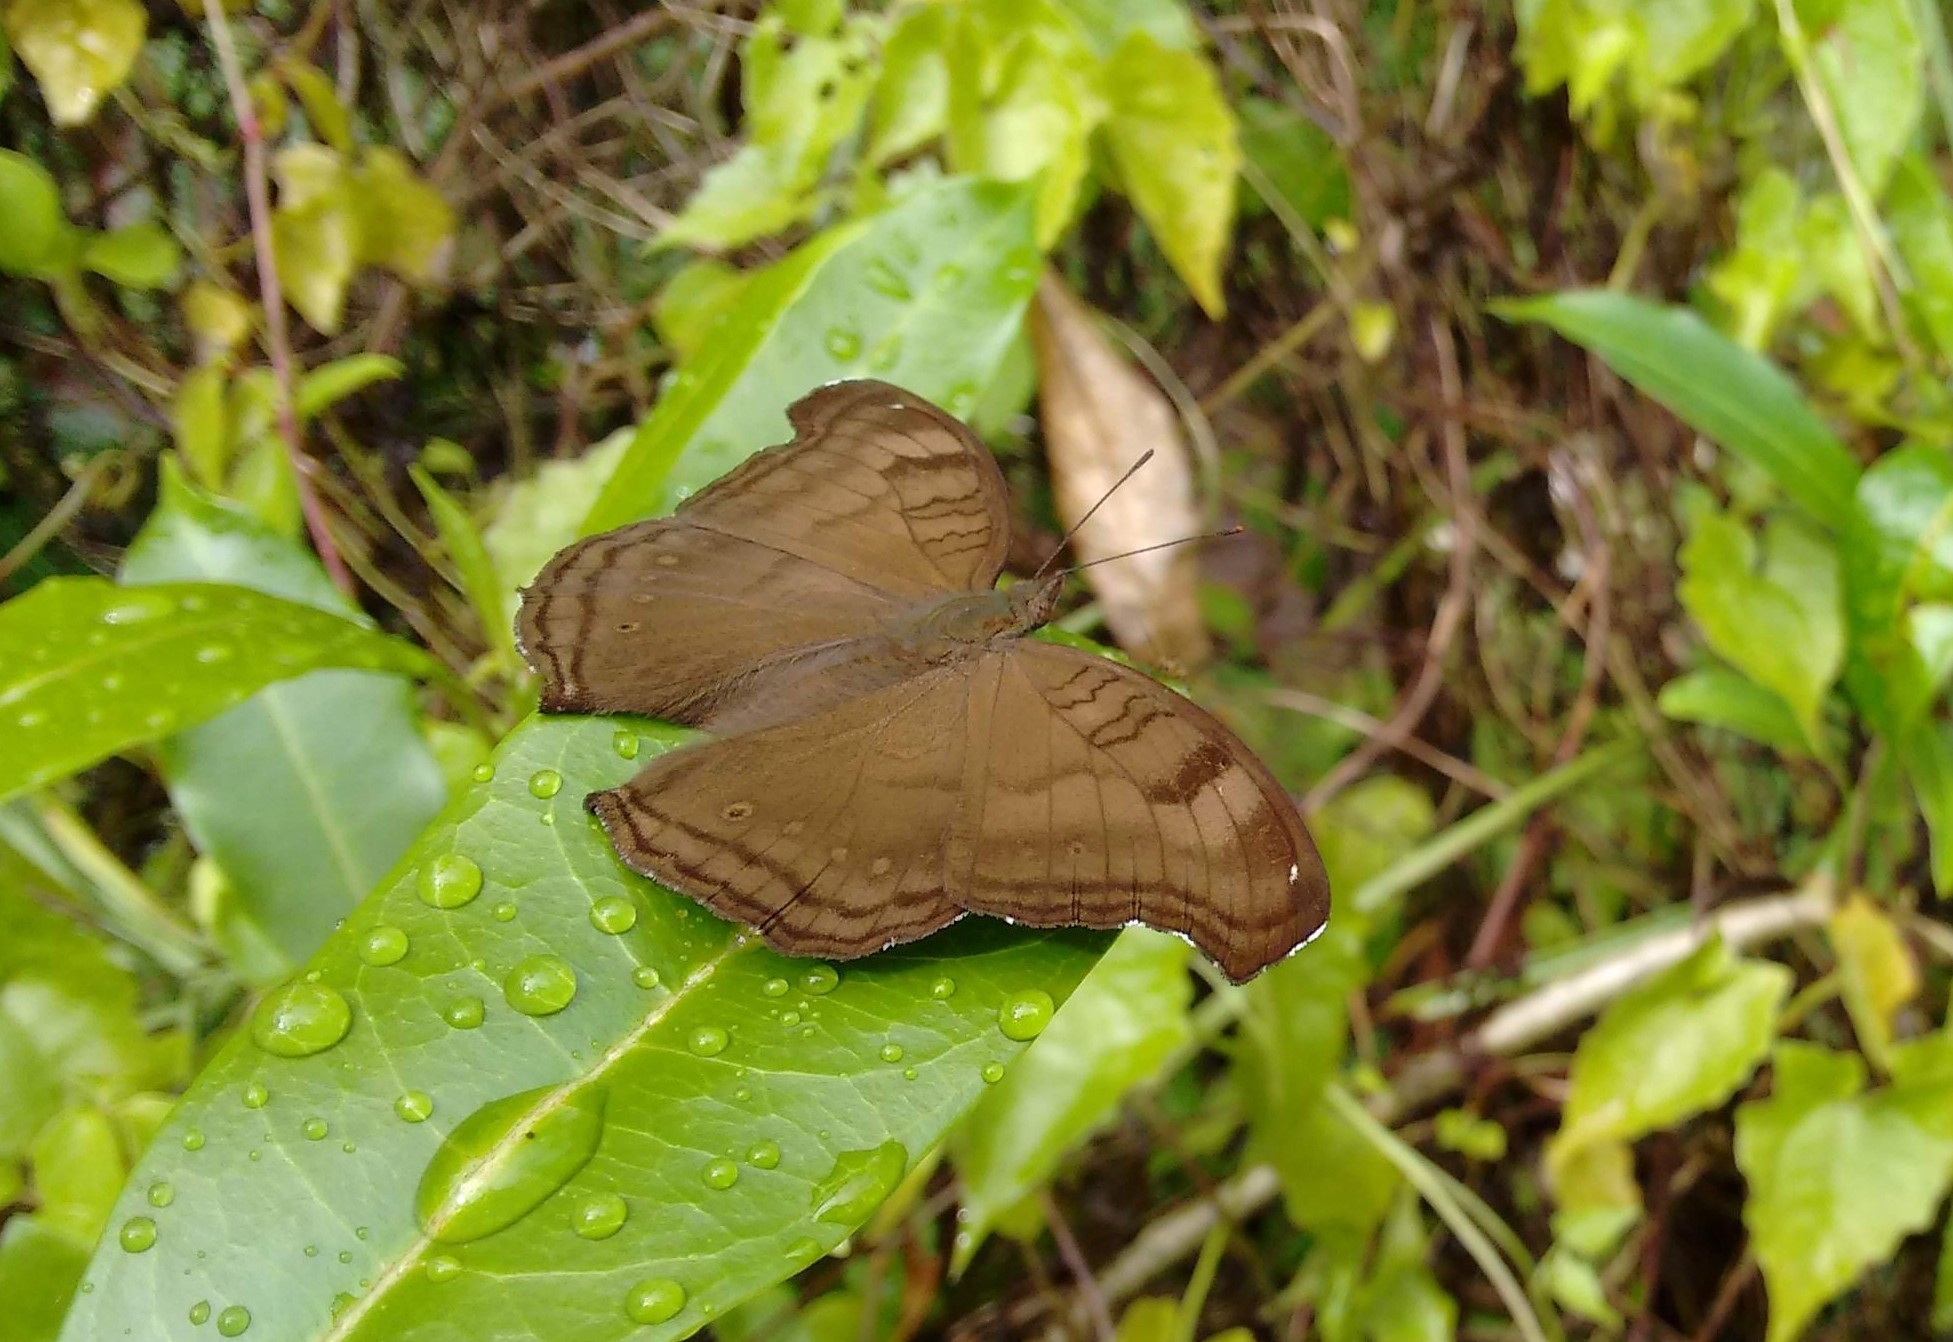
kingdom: Animalia
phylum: Arthropoda
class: Insecta
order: Lepidoptera
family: Nymphalidae
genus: Junonia
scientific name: Junonia iphita
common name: Chocolate pansy
